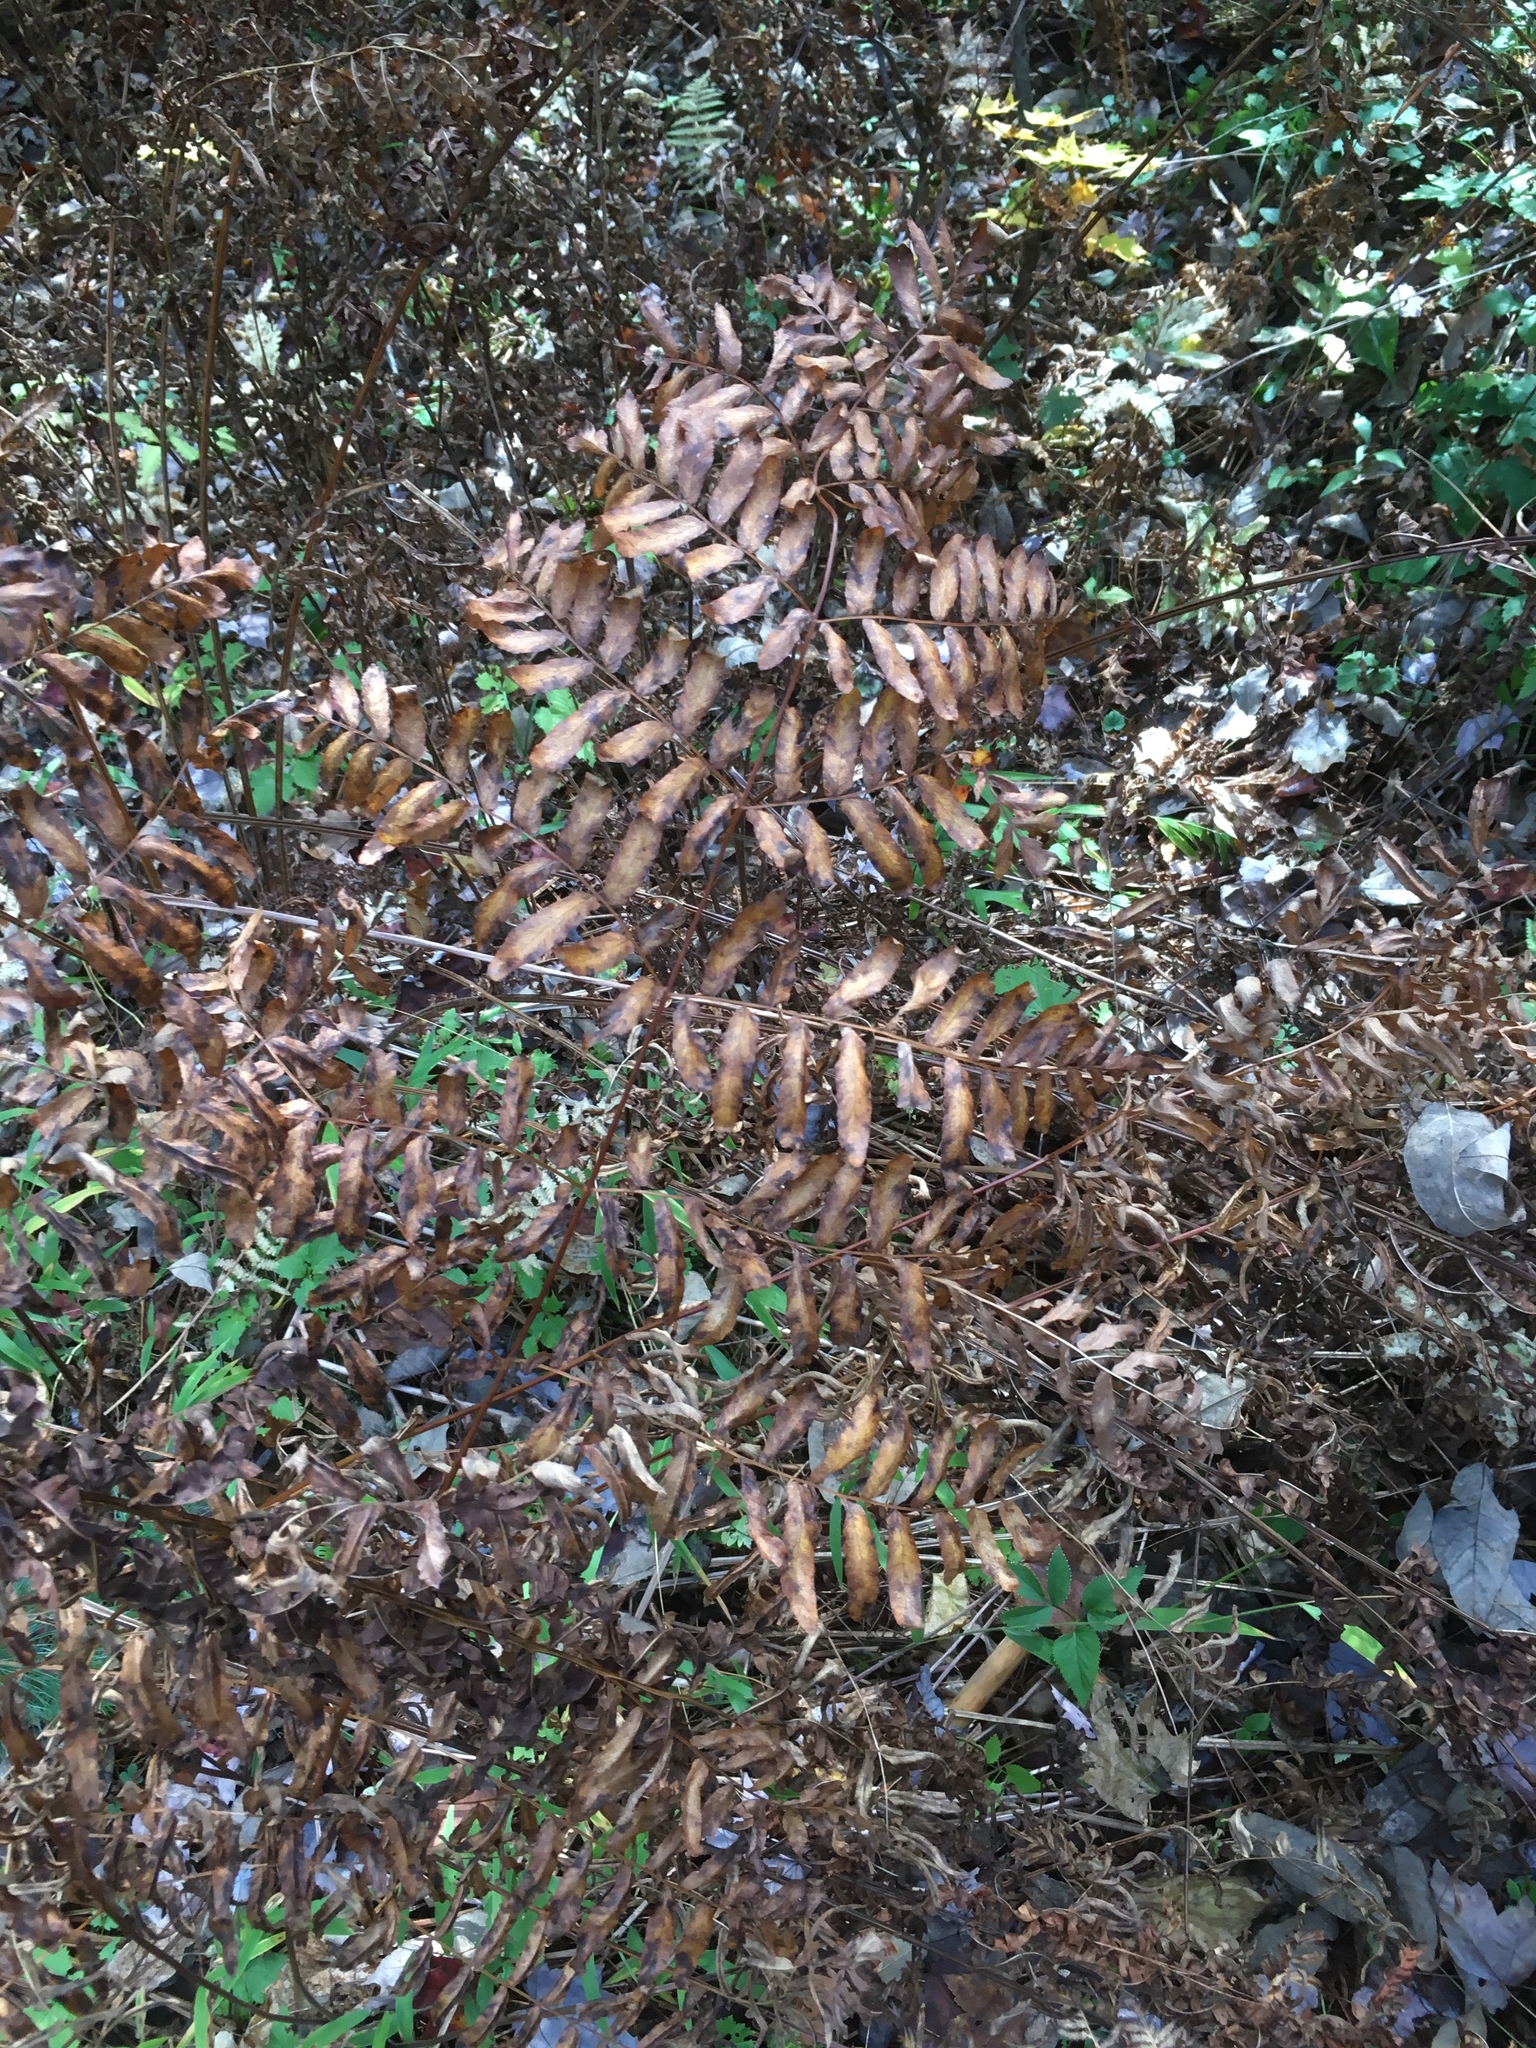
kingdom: Plantae
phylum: Tracheophyta
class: Polypodiopsida
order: Osmundales
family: Osmundaceae
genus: Osmunda
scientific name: Osmunda spectabilis
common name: American royal fern
